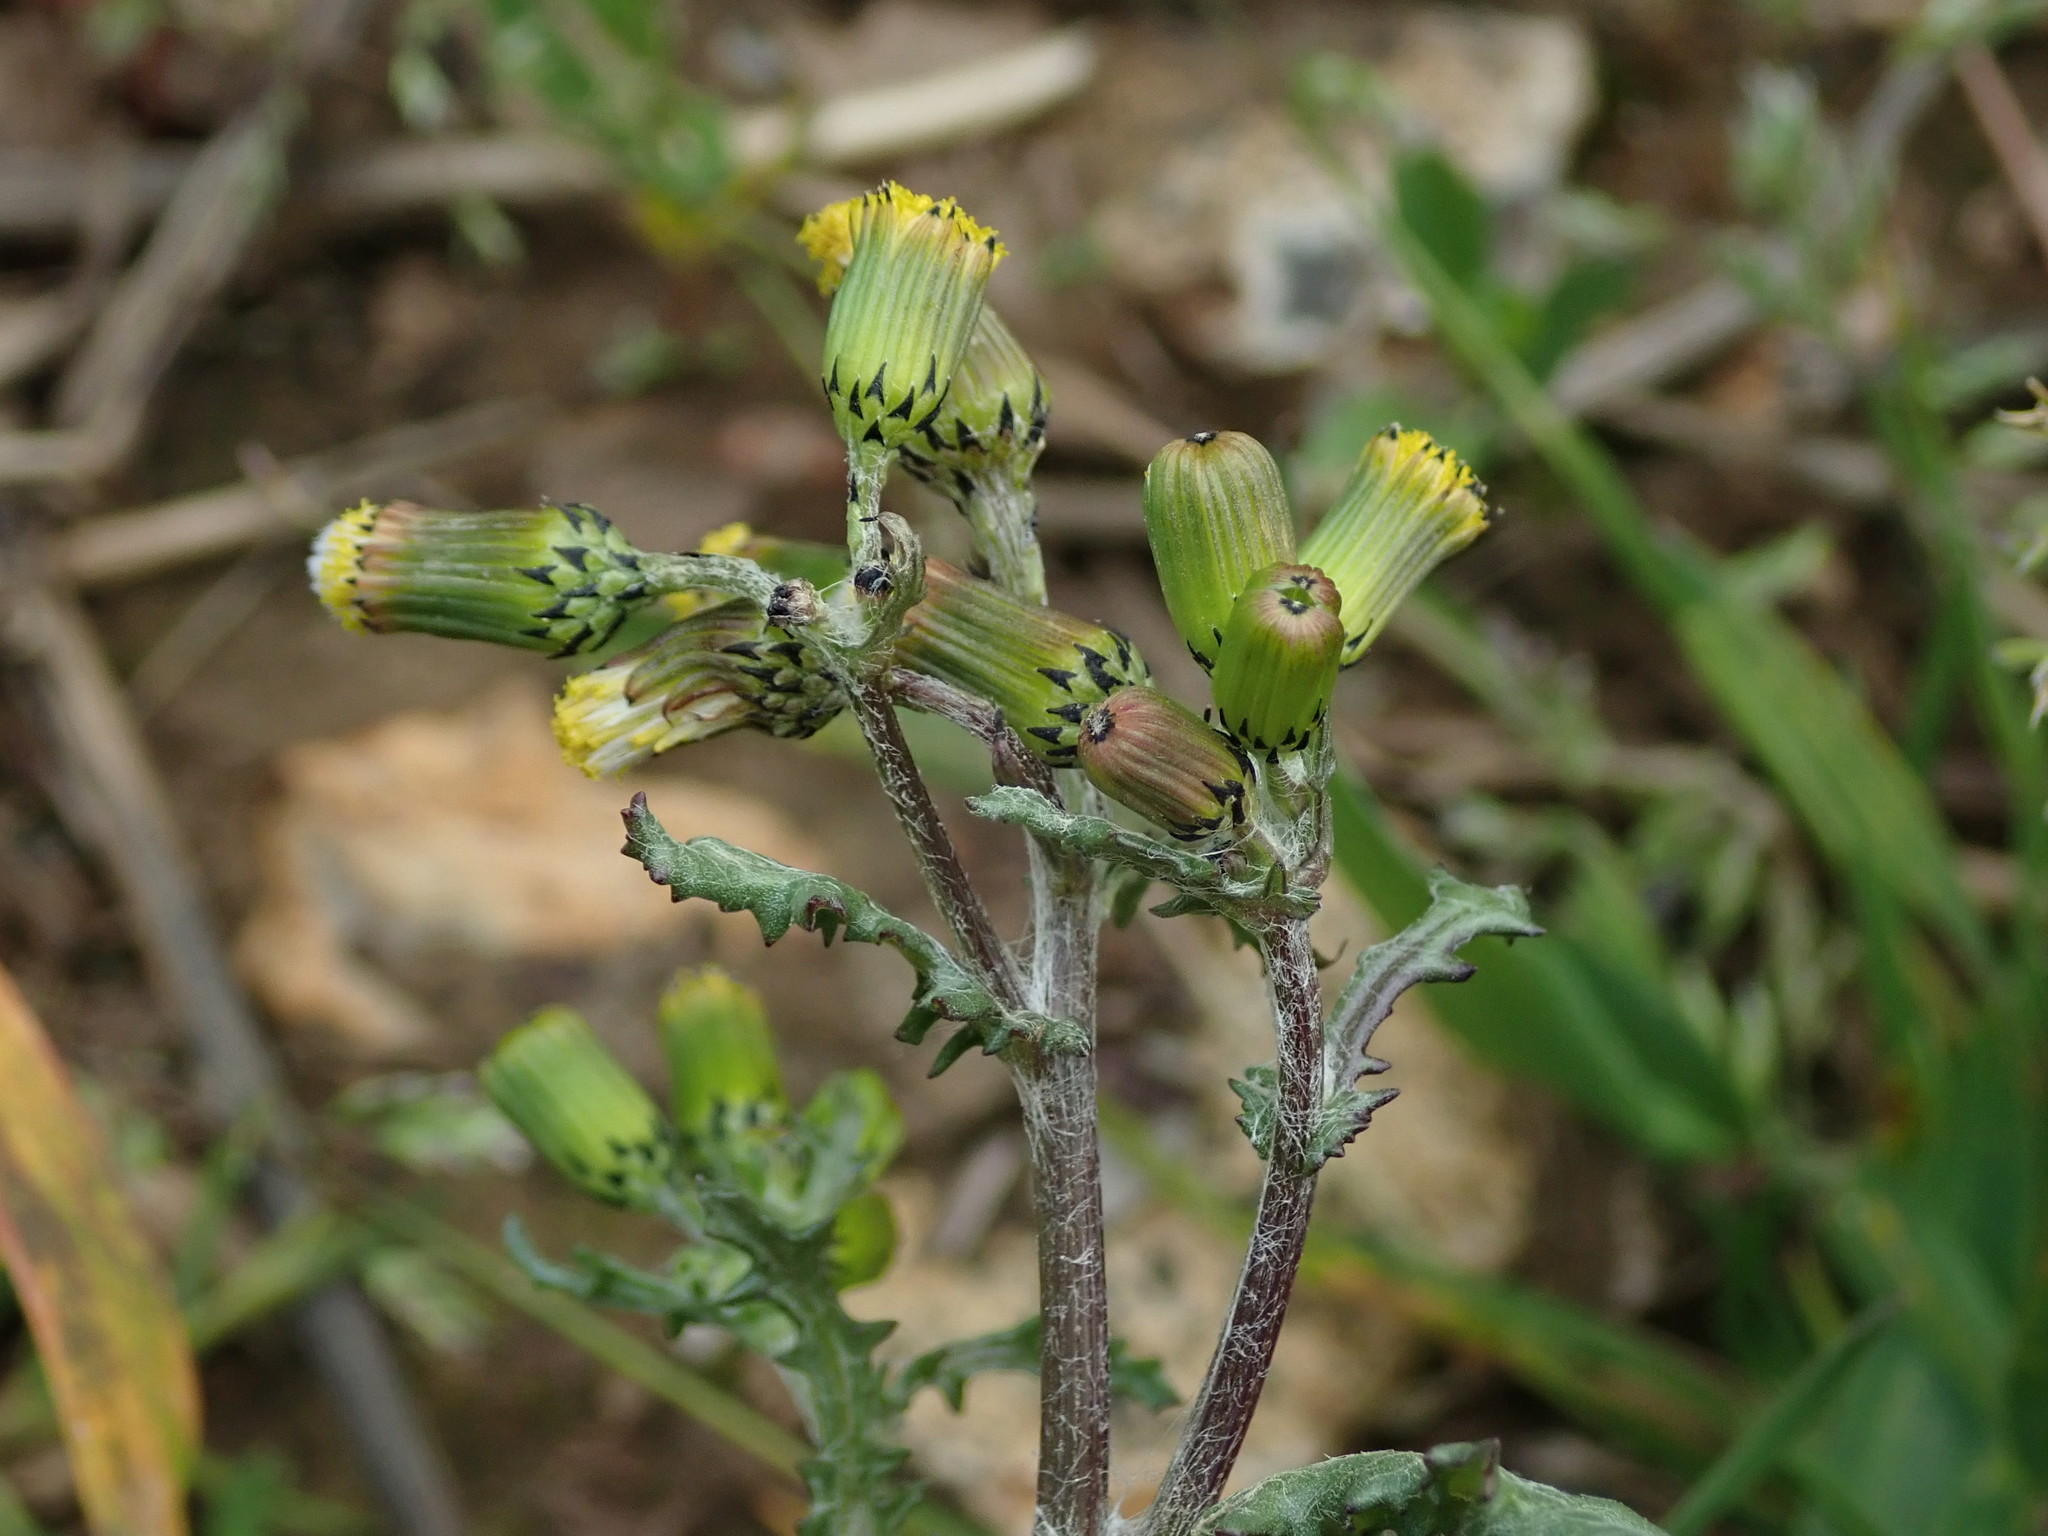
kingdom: Plantae
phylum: Tracheophyta
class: Magnoliopsida
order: Asterales
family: Asteraceae
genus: Senecio
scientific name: Senecio vulgaris
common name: Old-man-in-the-spring
